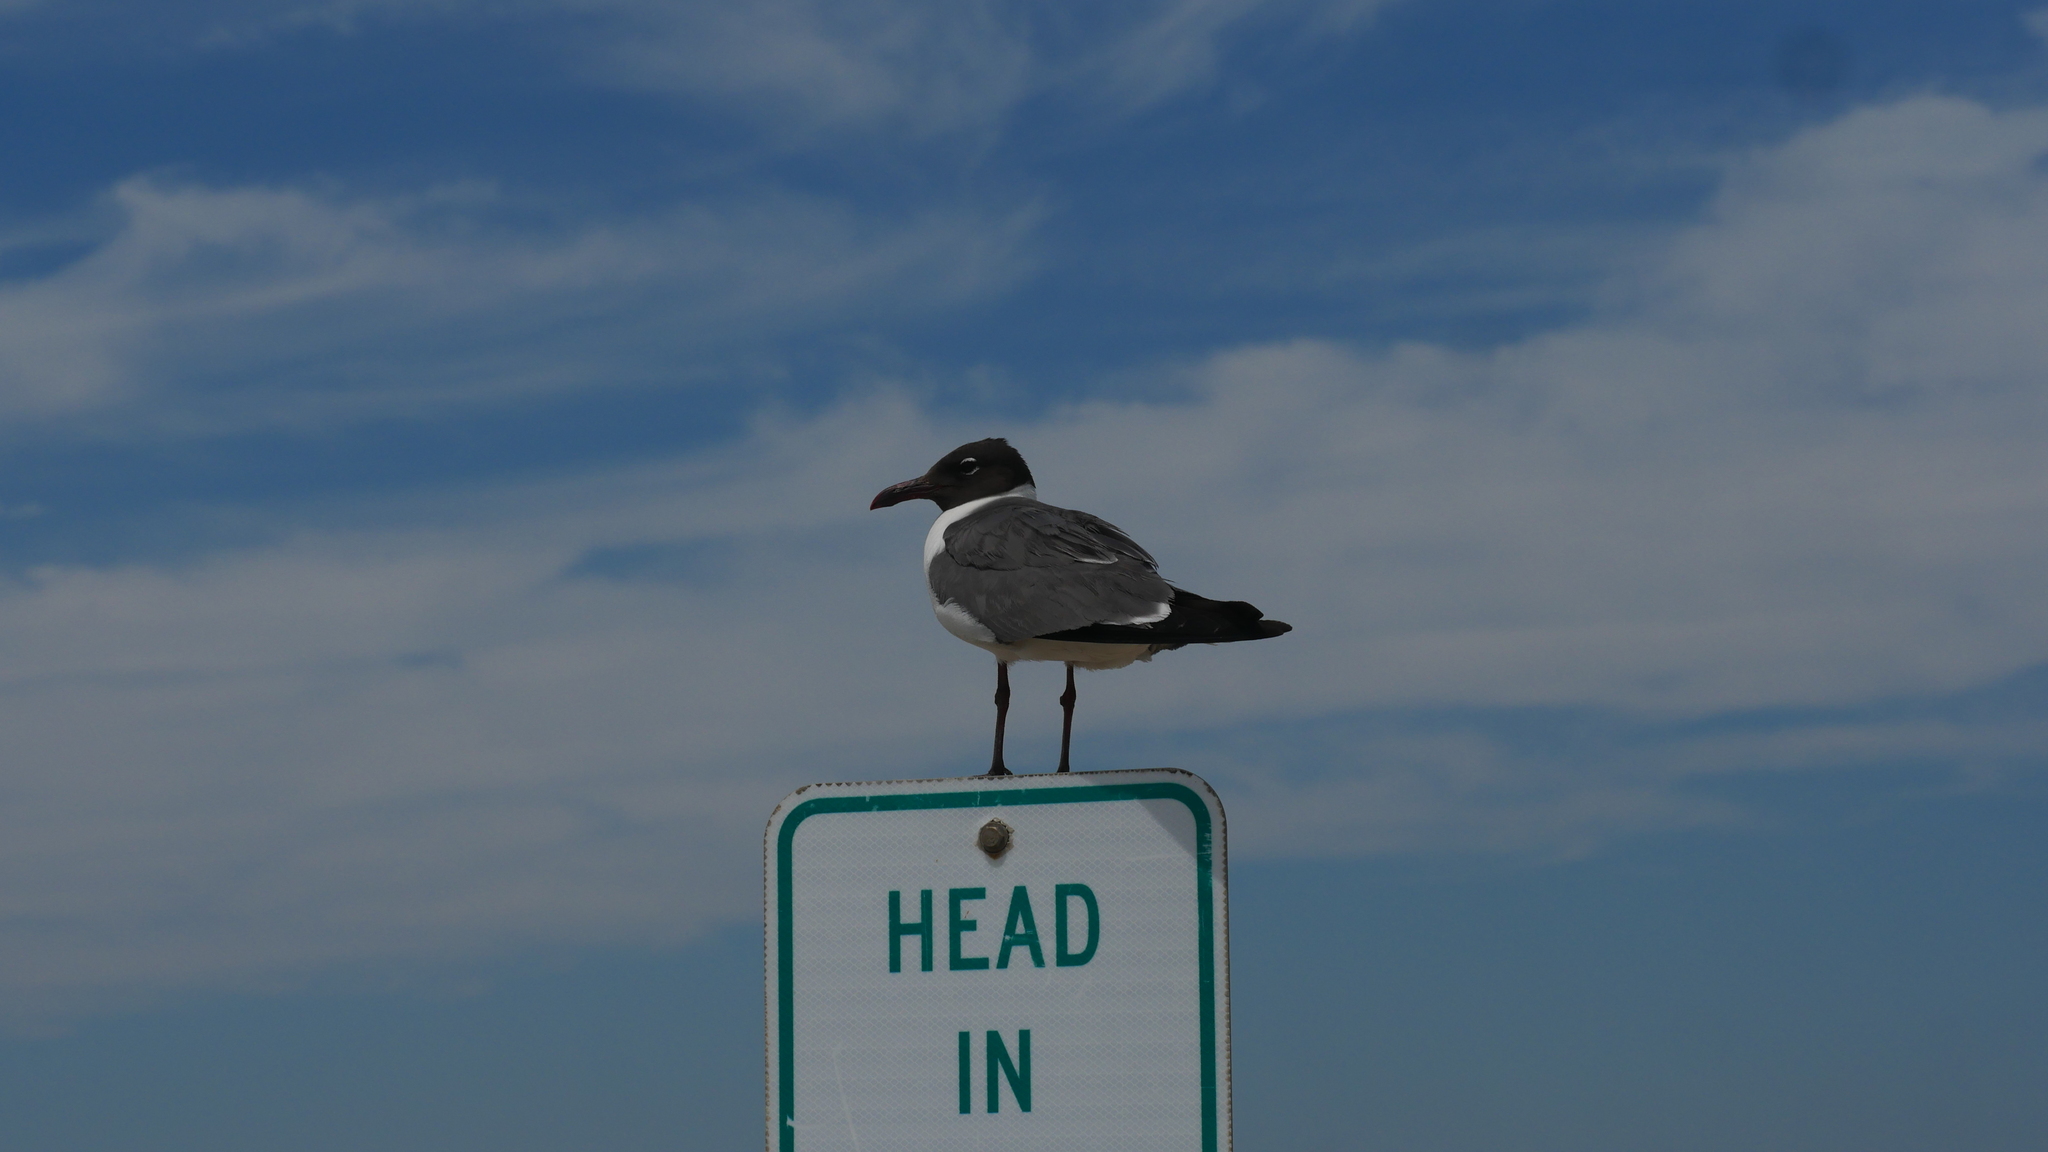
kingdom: Animalia
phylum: Chordata
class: Aves
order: Charadriiformes
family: Laridae
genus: Leucophaeus
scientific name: Leucophaeus atricilla
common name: Laughing gull
